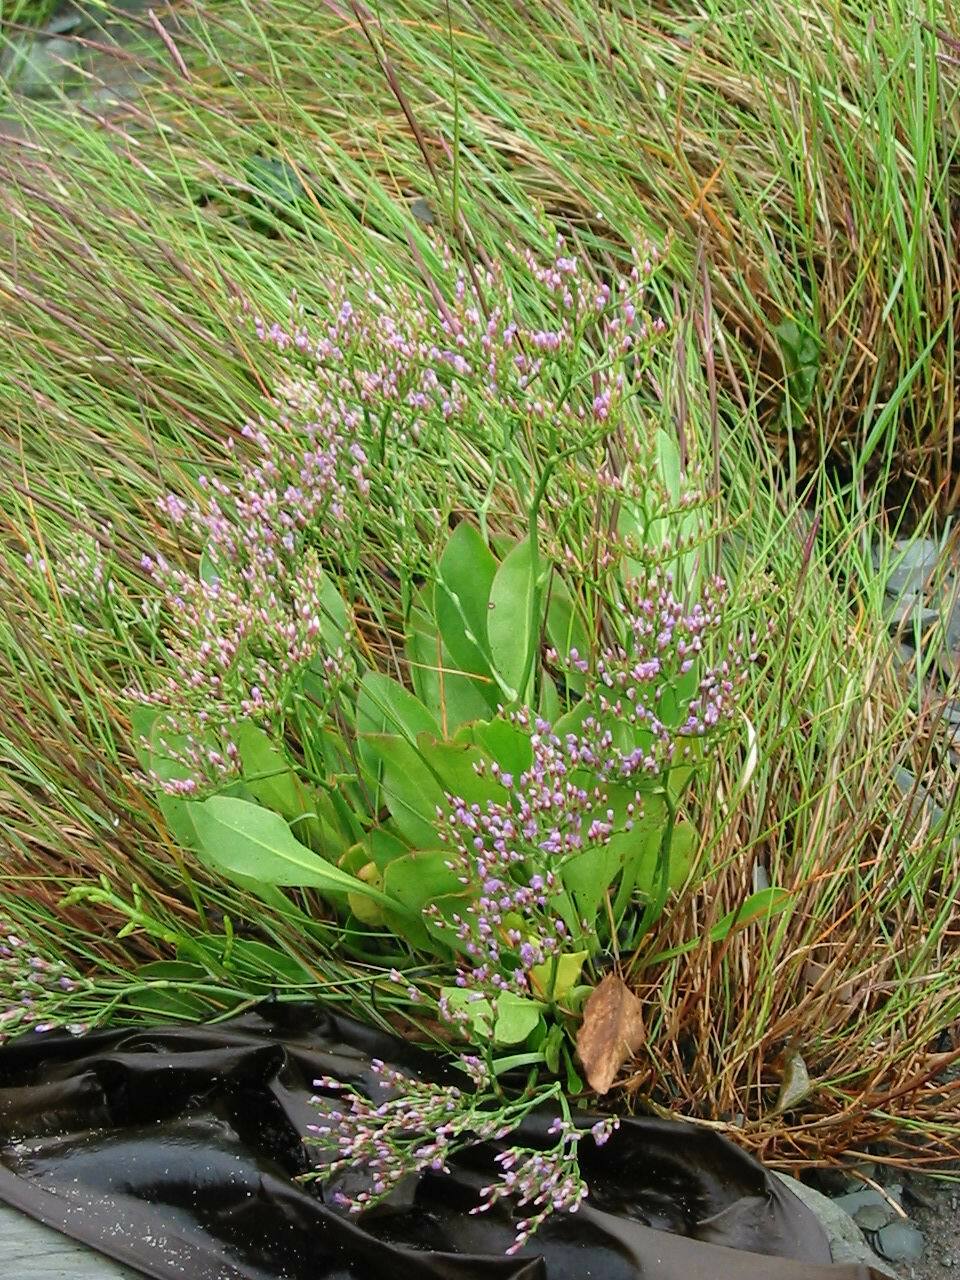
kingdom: Plantae
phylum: Tracheophyta
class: Magnoliopsida
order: Caryophyllales
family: Plumbaginaceae
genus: Limonium
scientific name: Limonium carolinianum
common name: Carolina sea lavender
